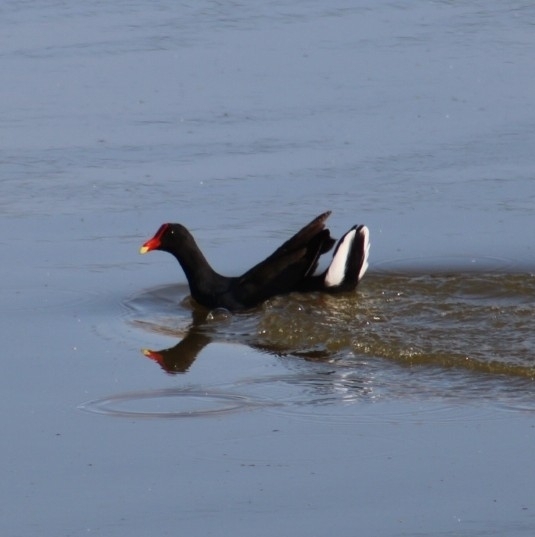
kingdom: Animalia
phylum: Chordata
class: Aves
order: Gruiformes
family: Rallidae
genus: Gallinula
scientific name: Gallinula chloropus
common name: Common moorhen
